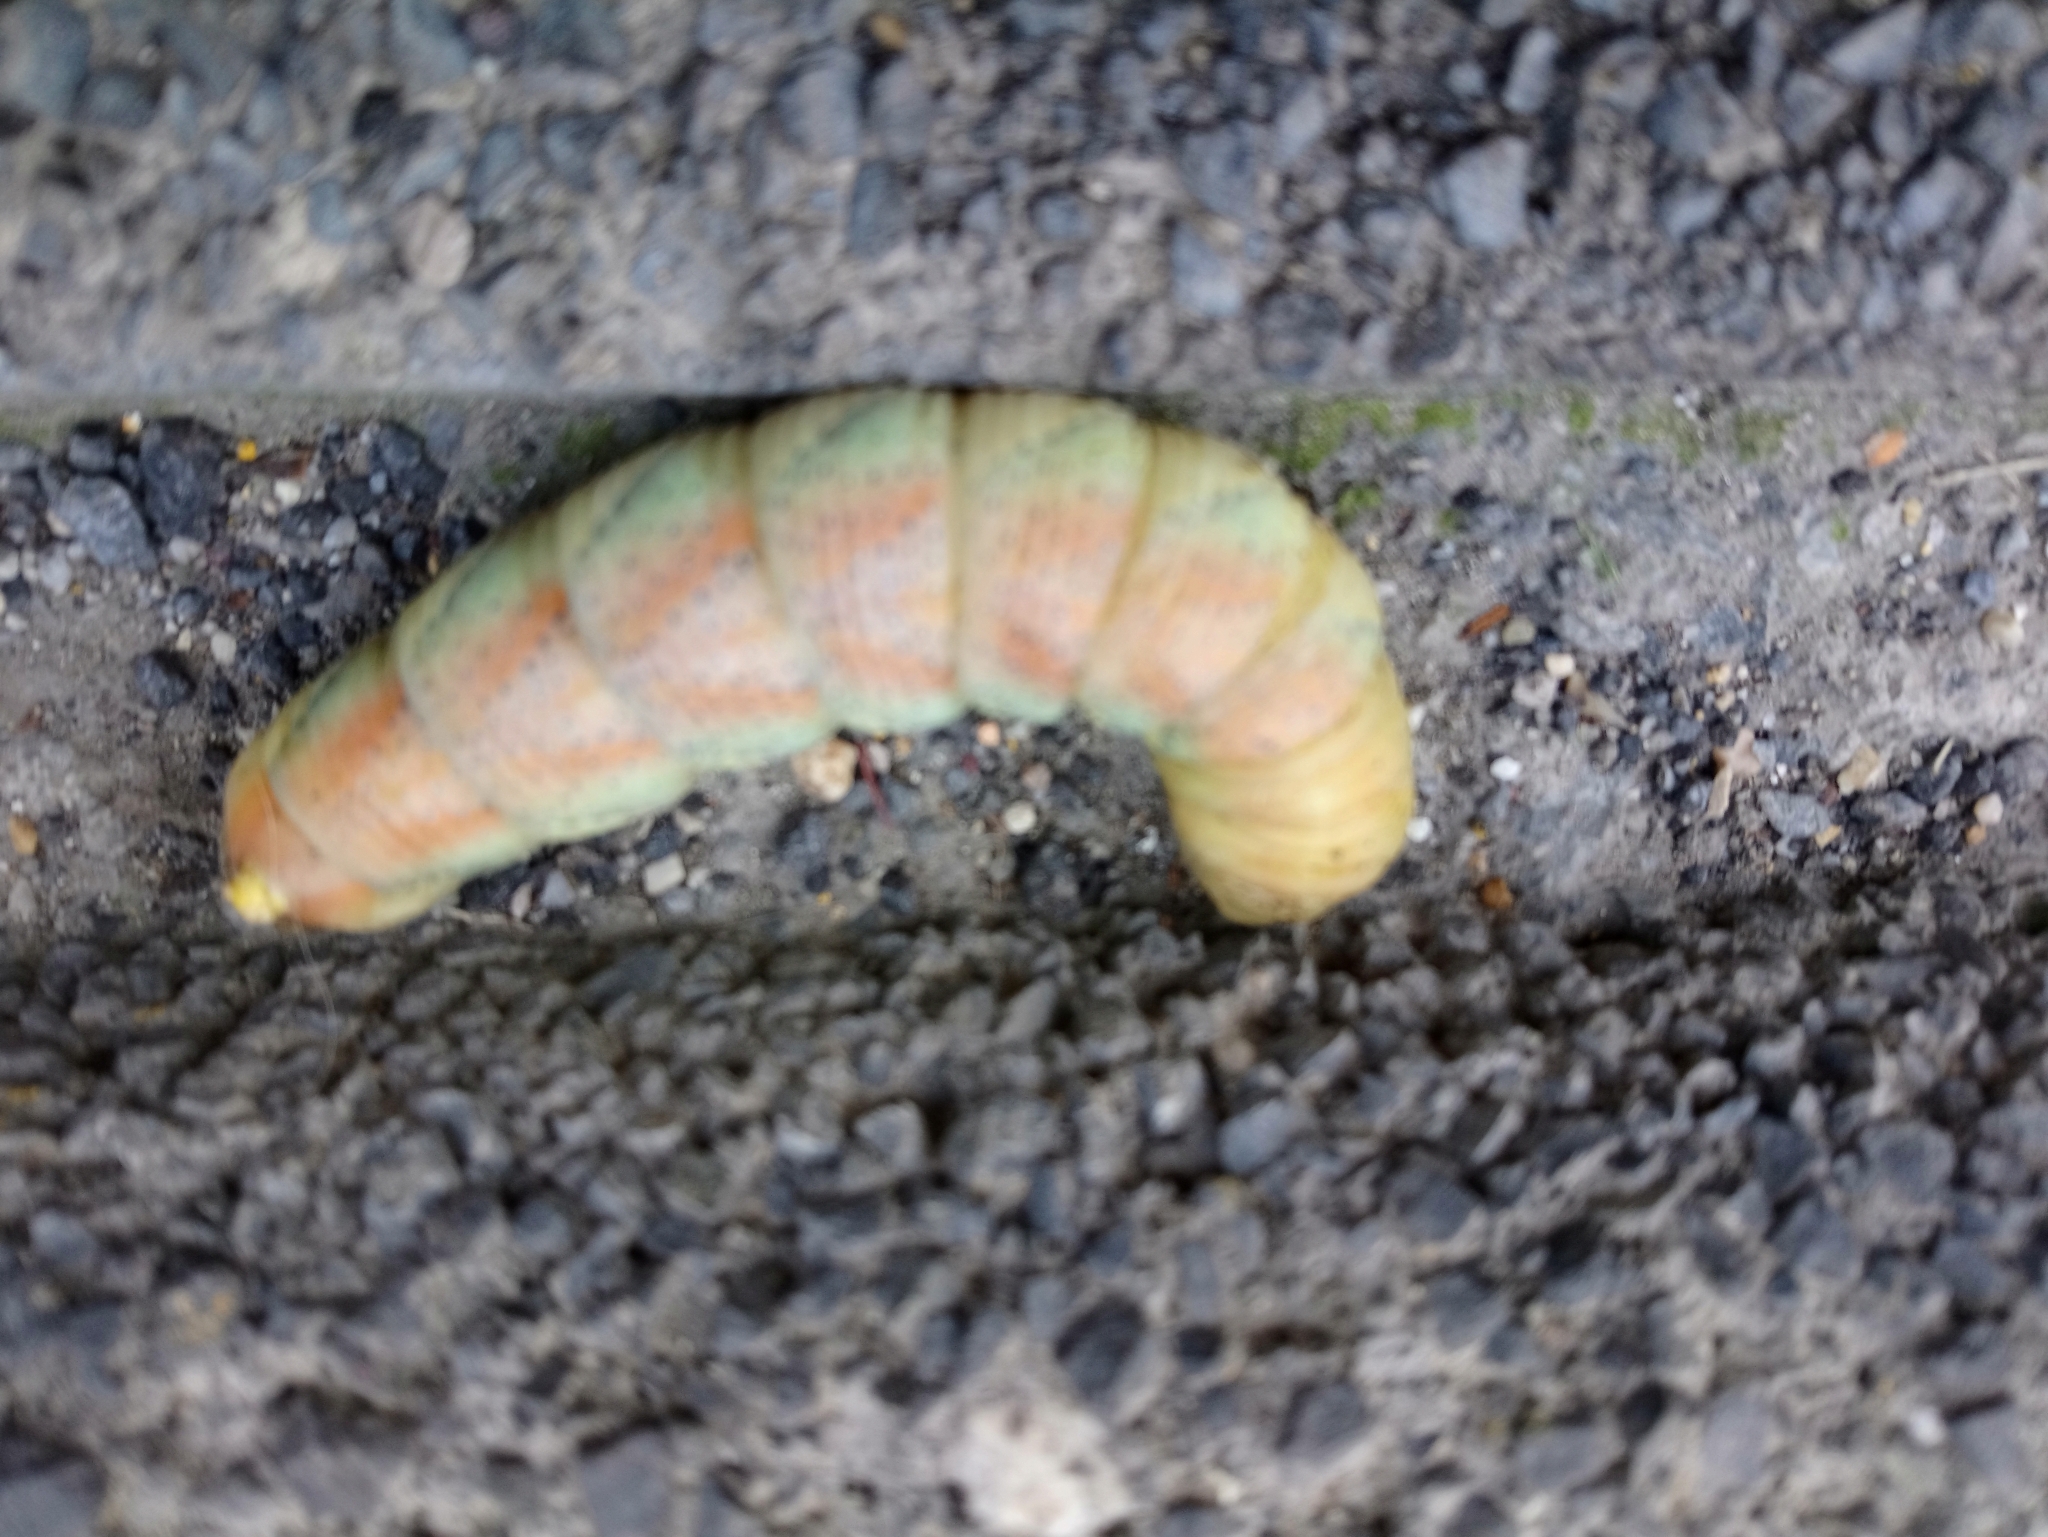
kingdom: Animalia
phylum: Arthropoda
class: Insecta
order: Lepidoptera
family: Sphingidae
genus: Acherontia
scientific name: Acherontia atropos
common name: Death's-head hawk moth
